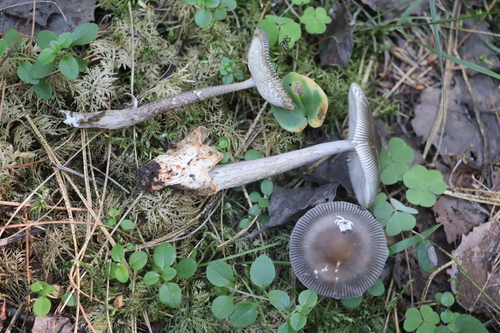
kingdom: Fungi
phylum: Basidiomycota
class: Agaricomycetes
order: Agaricales
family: Amanitaceae
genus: Amanita
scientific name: Amanita battarrae
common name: Banded amanita
